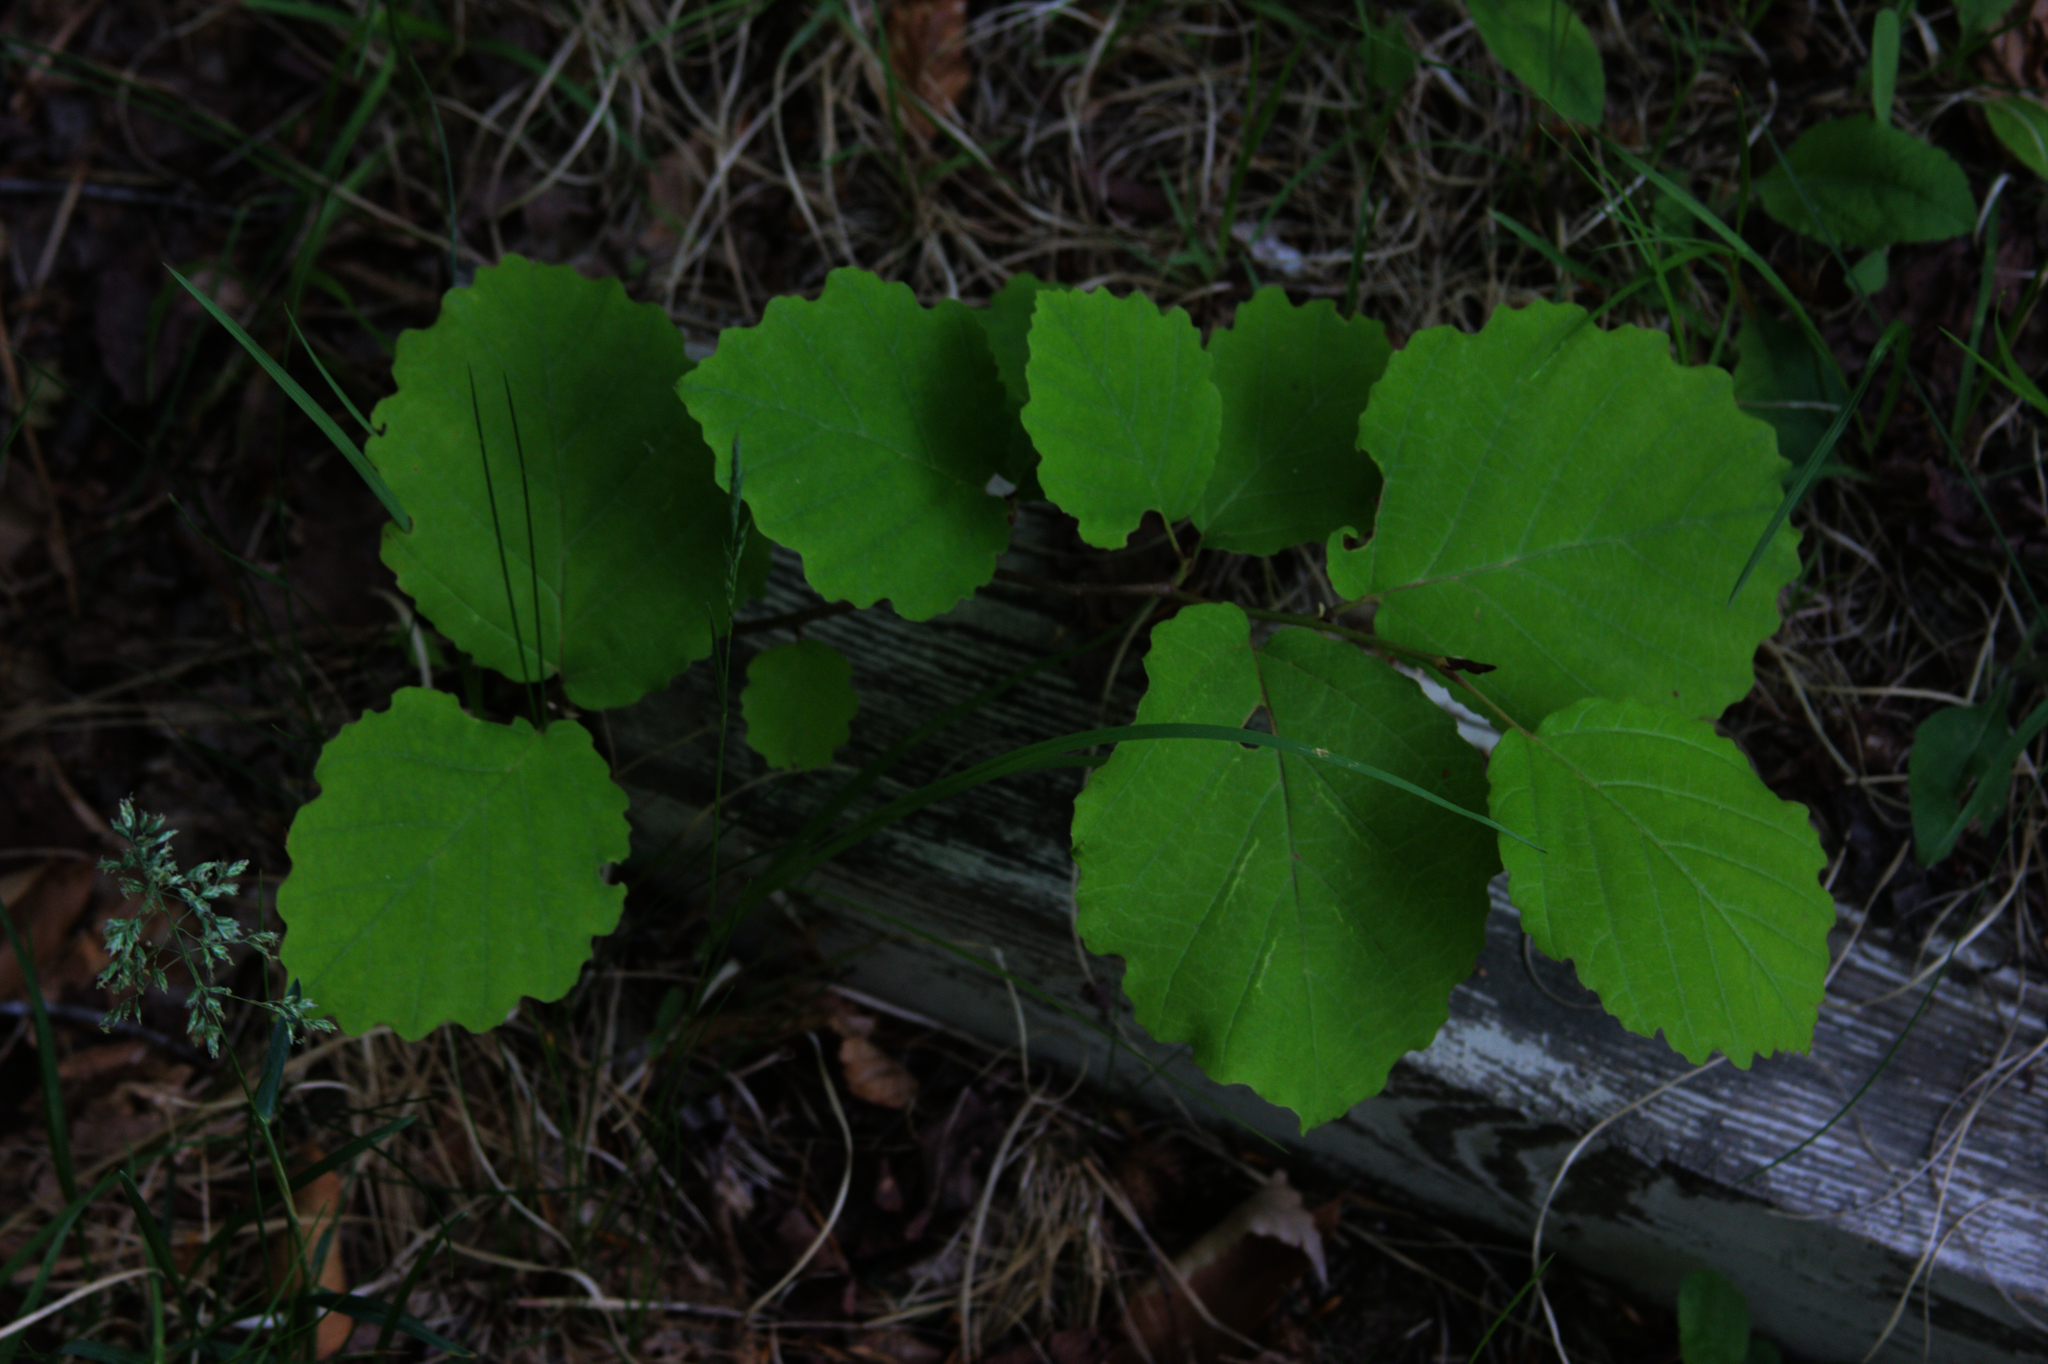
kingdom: Plantae
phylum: Tracheophyta
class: Magnoliopsida
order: Saxifragales
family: Hamamelidaceae
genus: Hamamelis
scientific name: Hamamelis virginiana
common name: Witch-hazel
